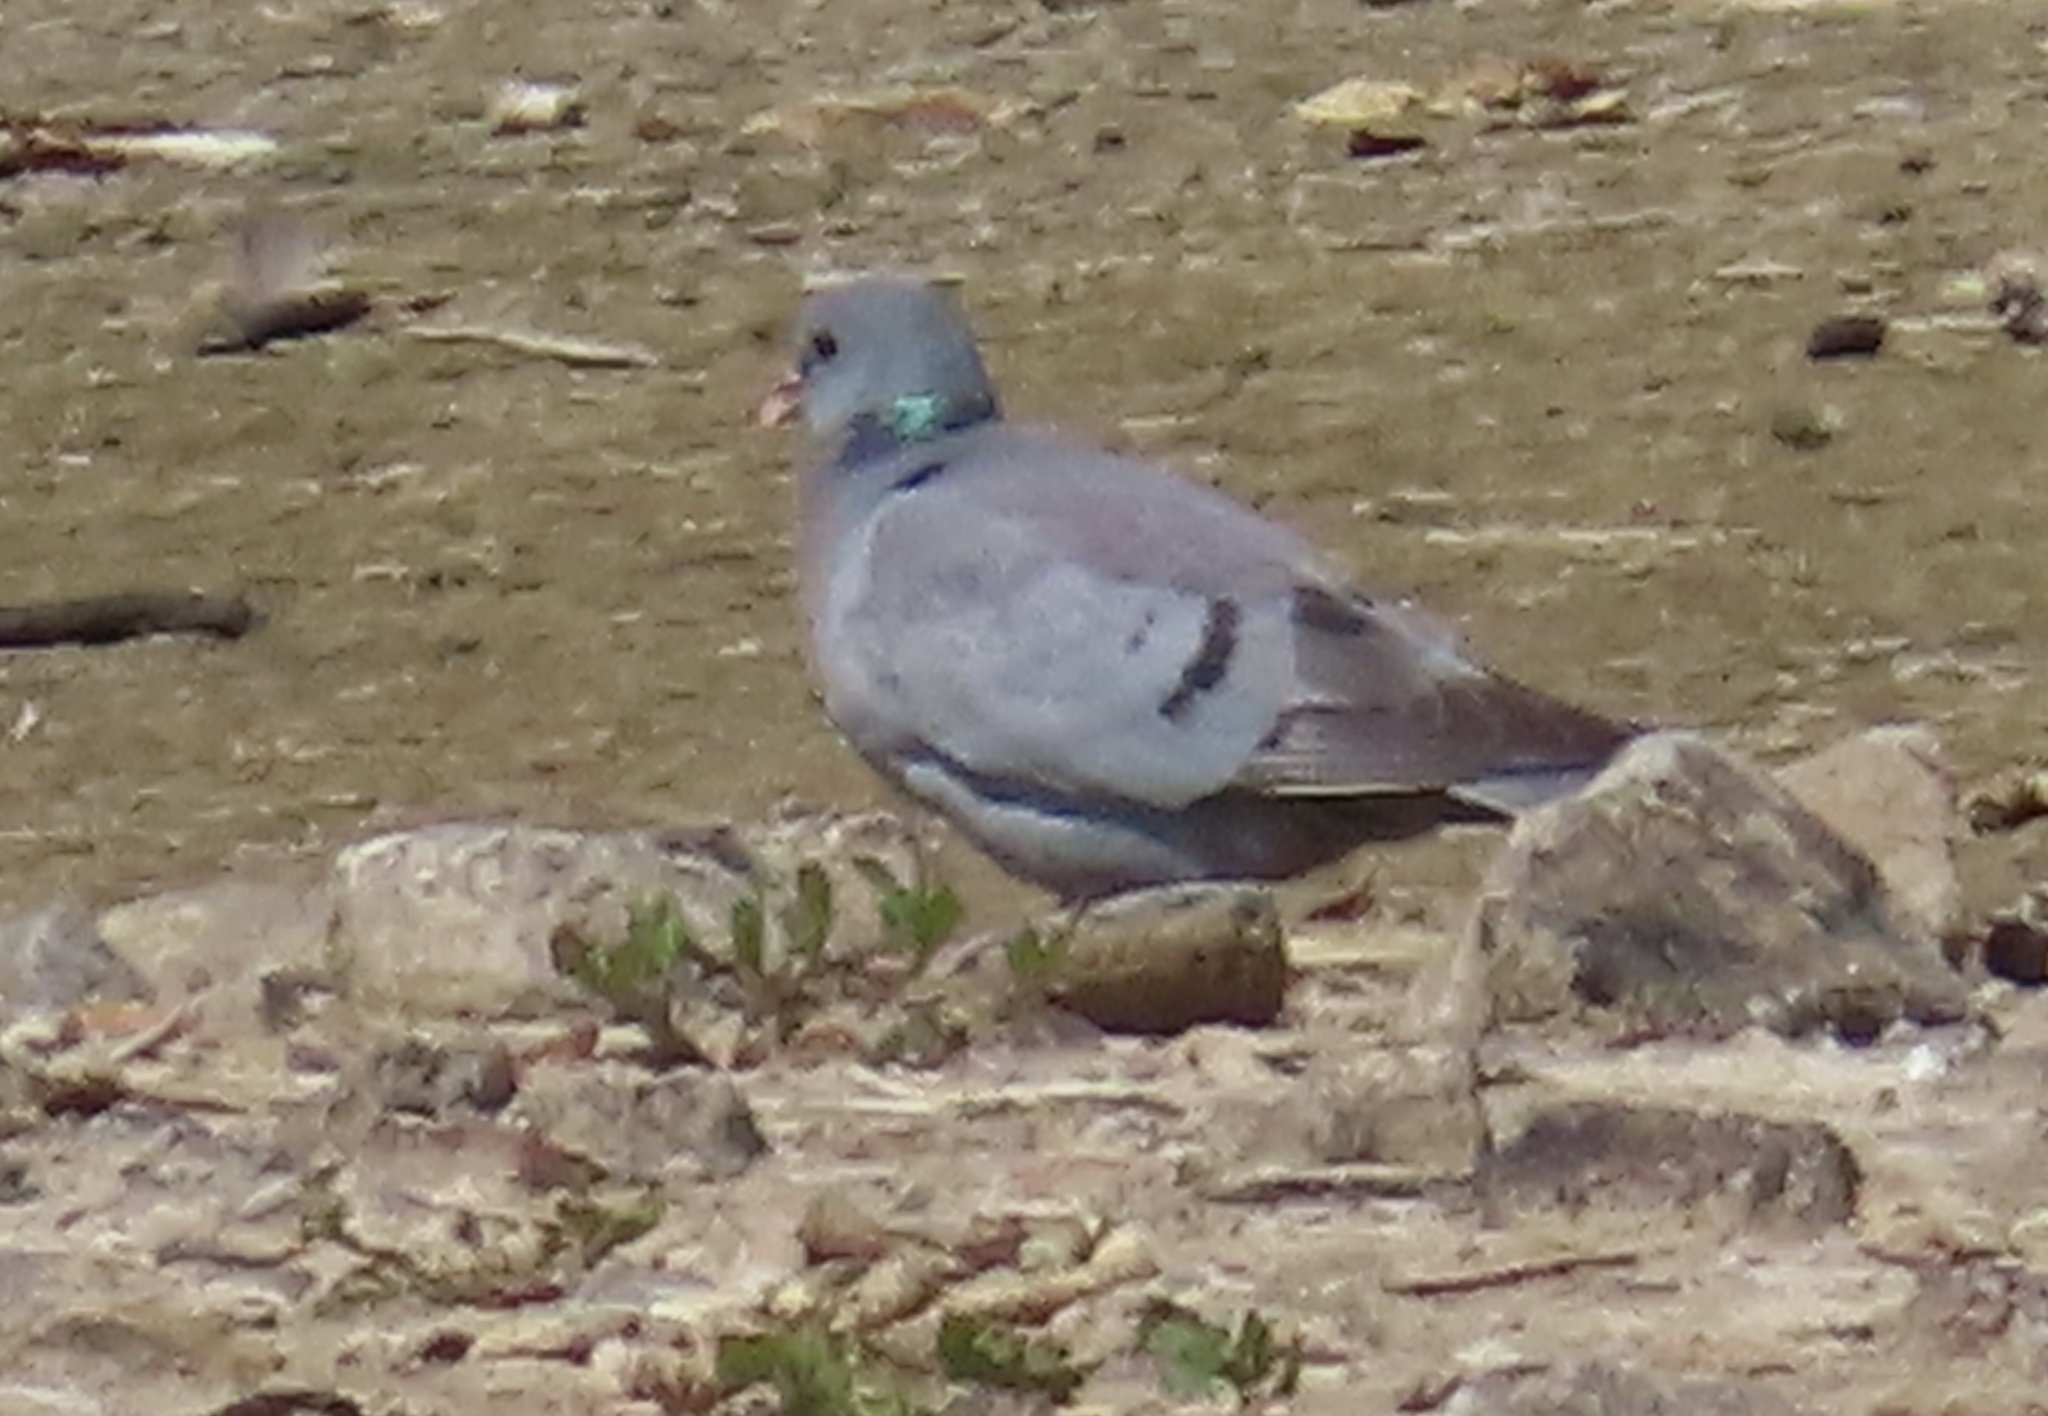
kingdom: Animalia
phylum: Chordata
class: Aves
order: Columbiformes
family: Columbidae
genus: Columba
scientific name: Columba oenas
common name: Stock dove
